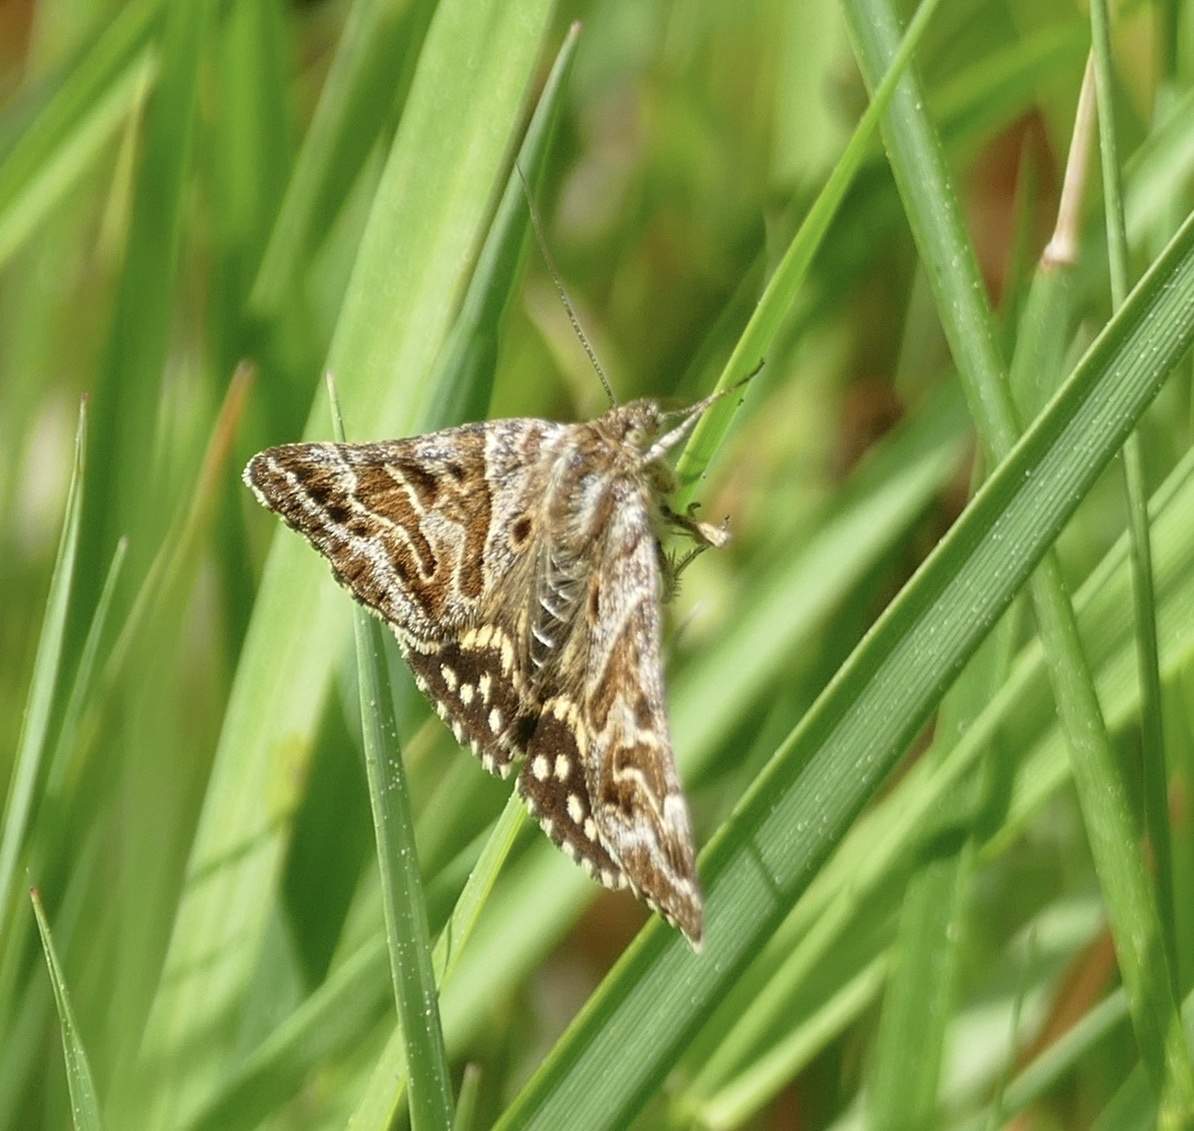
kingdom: Animalia
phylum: Arthropoda
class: Insecta
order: Lepidoptera
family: Erebidae
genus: Callistege
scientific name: Callistege mi
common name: Mother shipton
